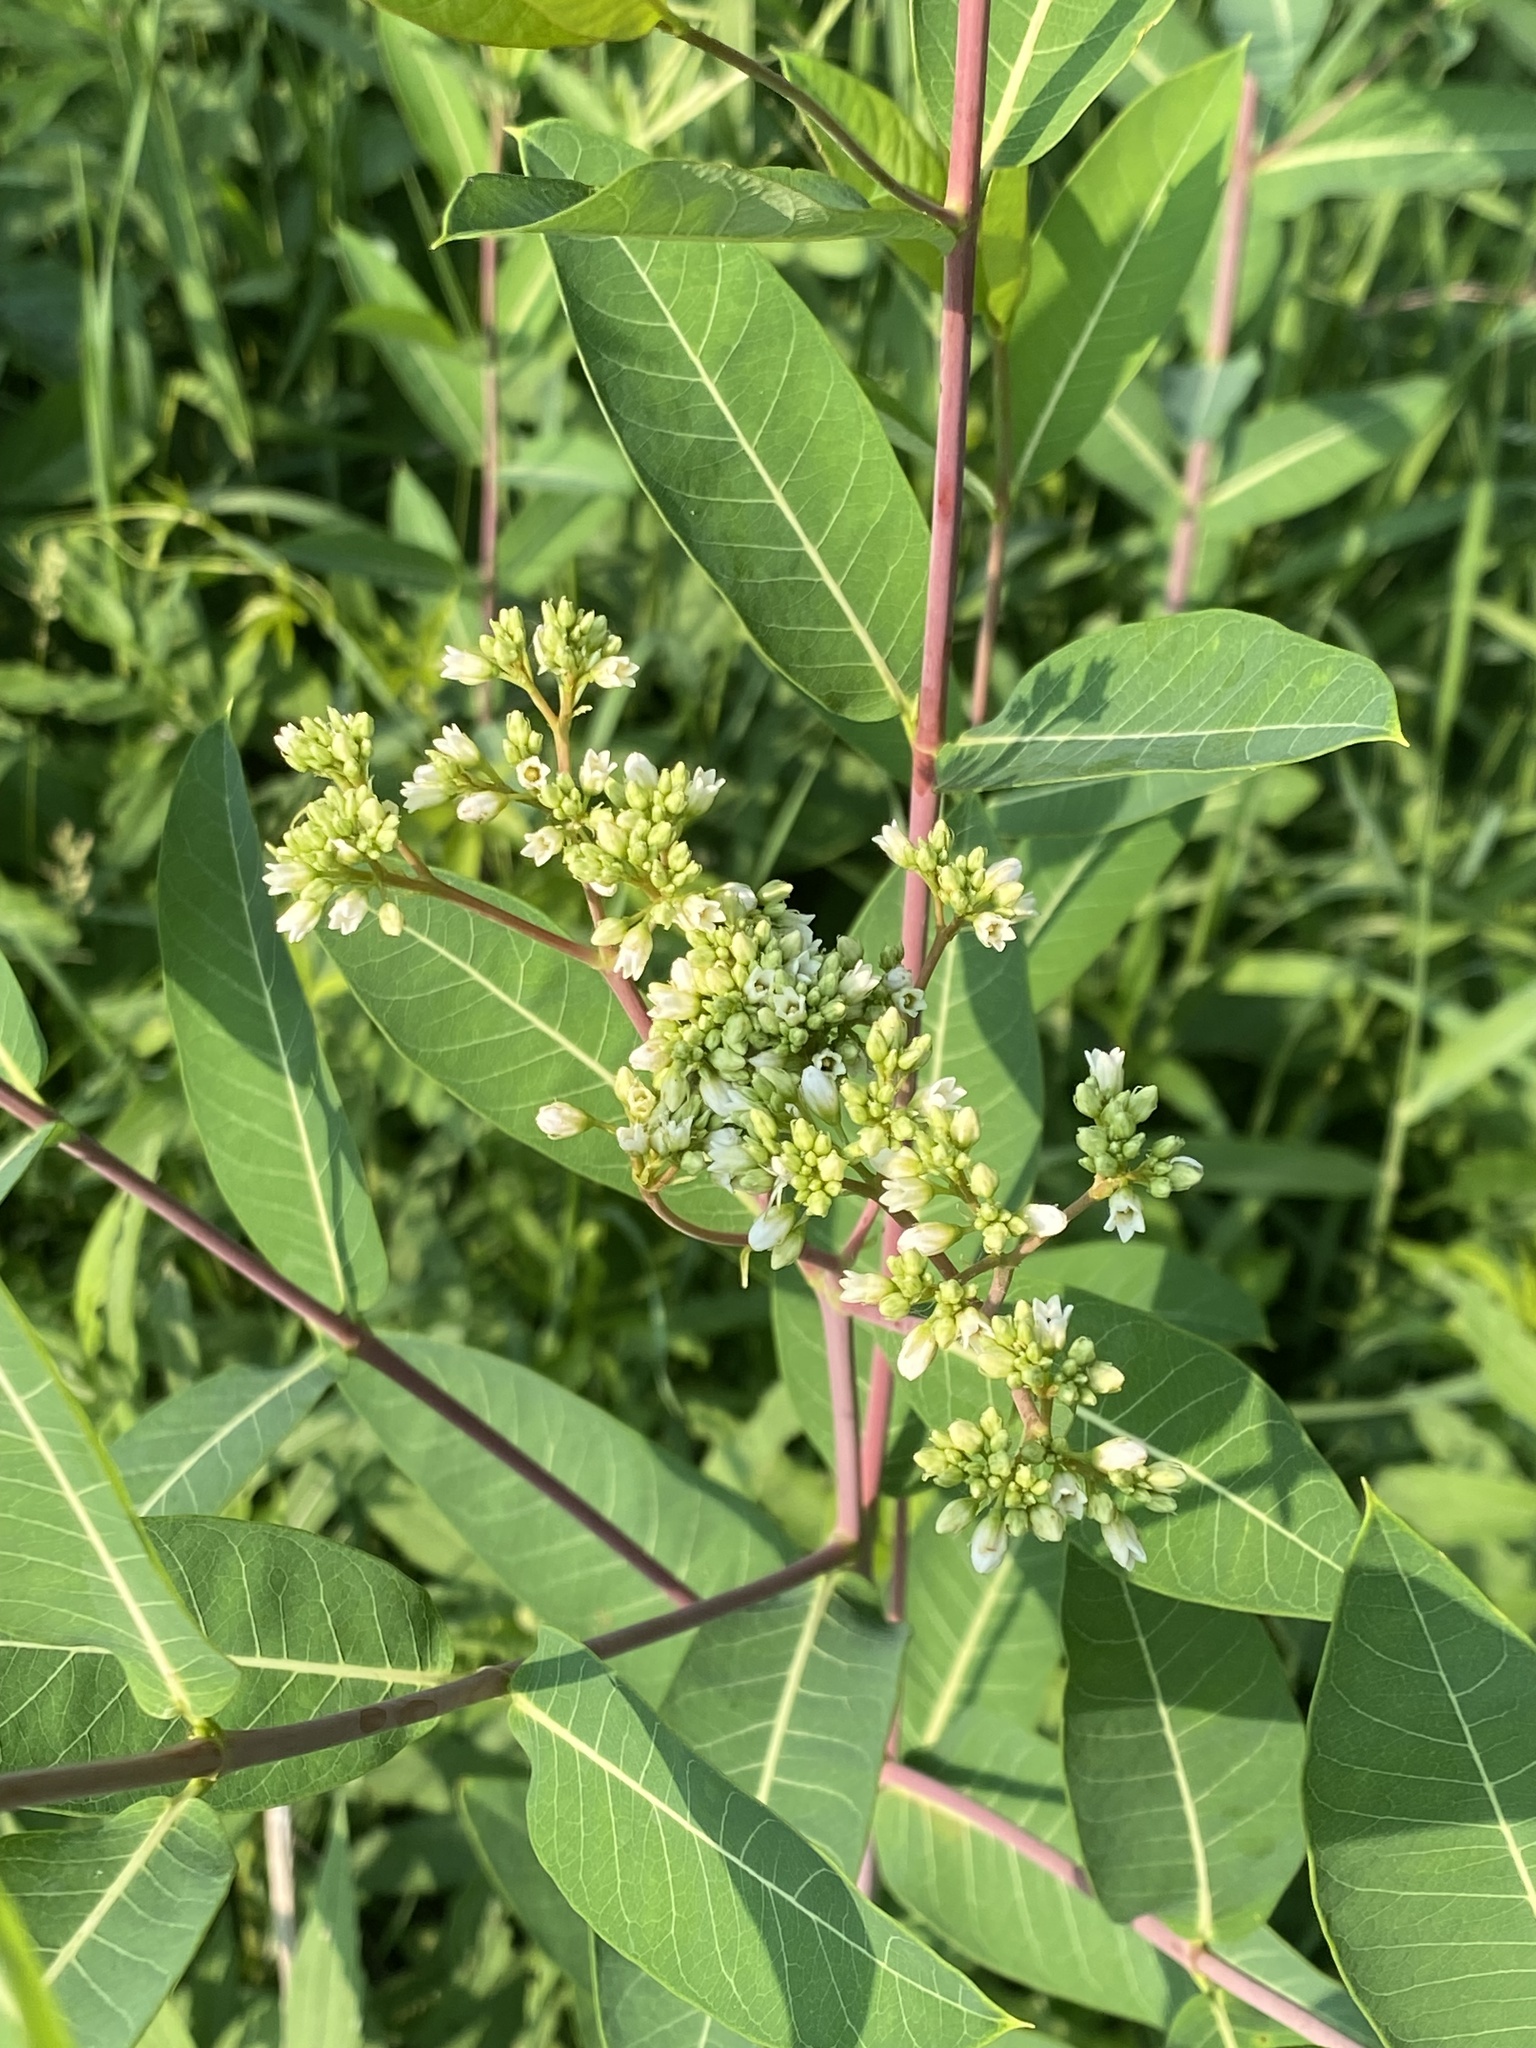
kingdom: Plantae
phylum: Tracheophyta
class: Magnoliopsida
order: Gentianales
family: Apocynaceae
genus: Apocynum
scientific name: Apocynum cannabinum
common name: Hemp dogbane
